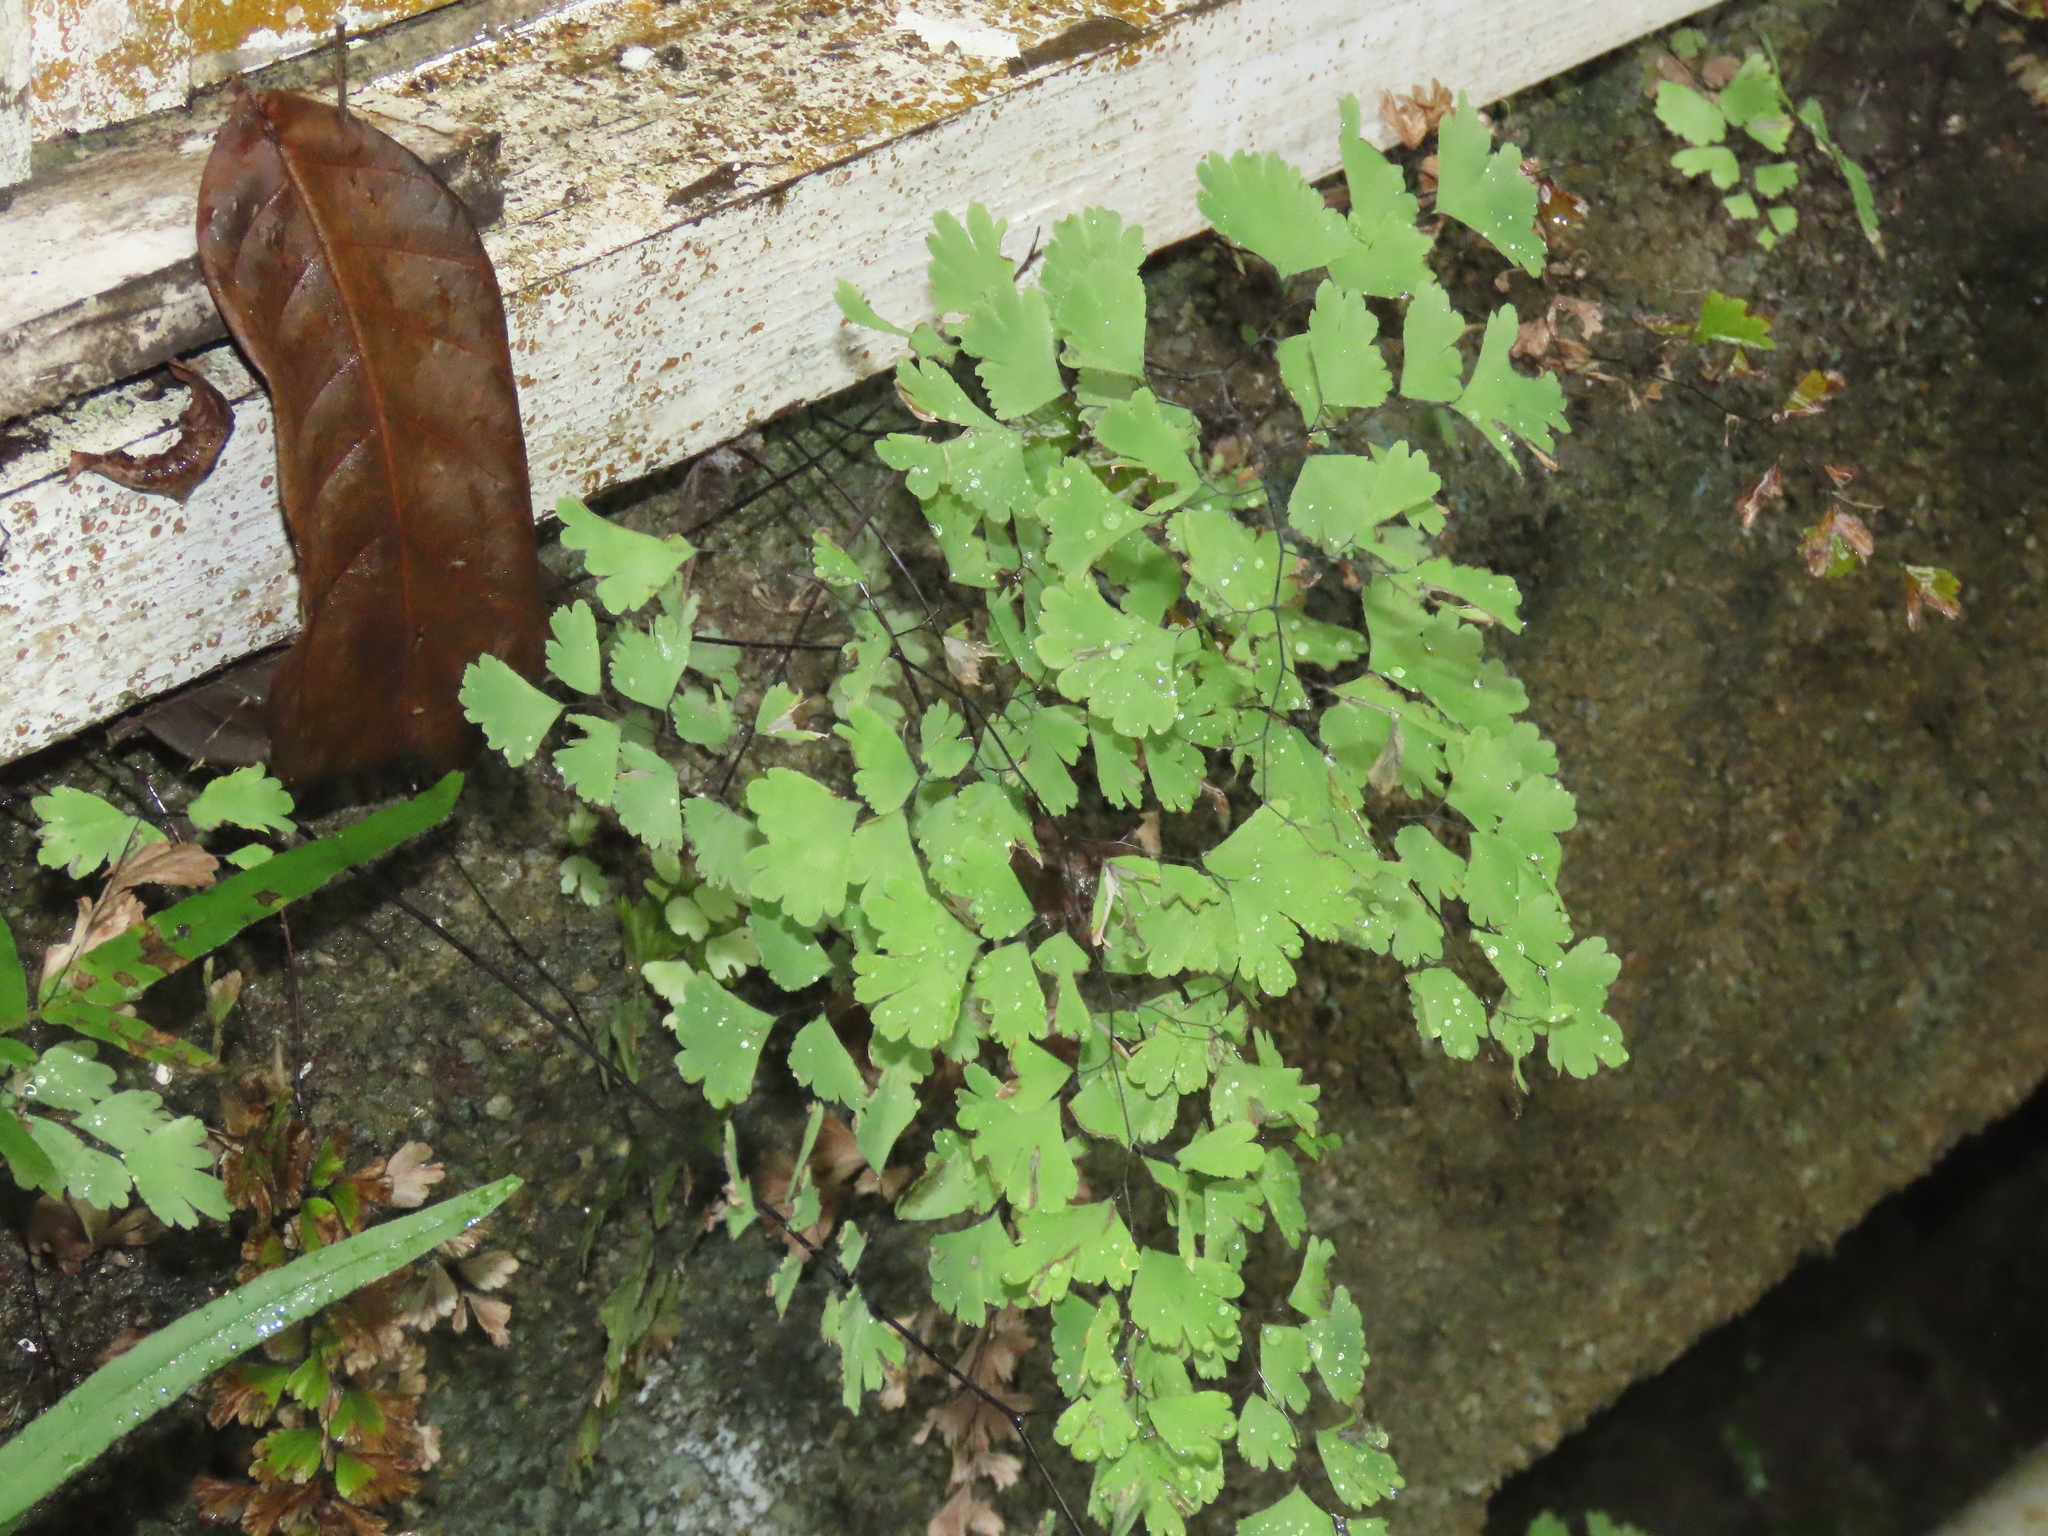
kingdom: Plantae
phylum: Tracheophyta
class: Polypodiopsida
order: Polypodiales
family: Pteridaceae
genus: Adiantum
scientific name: Adiantum capillus-veneris
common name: Maidenhair fern
